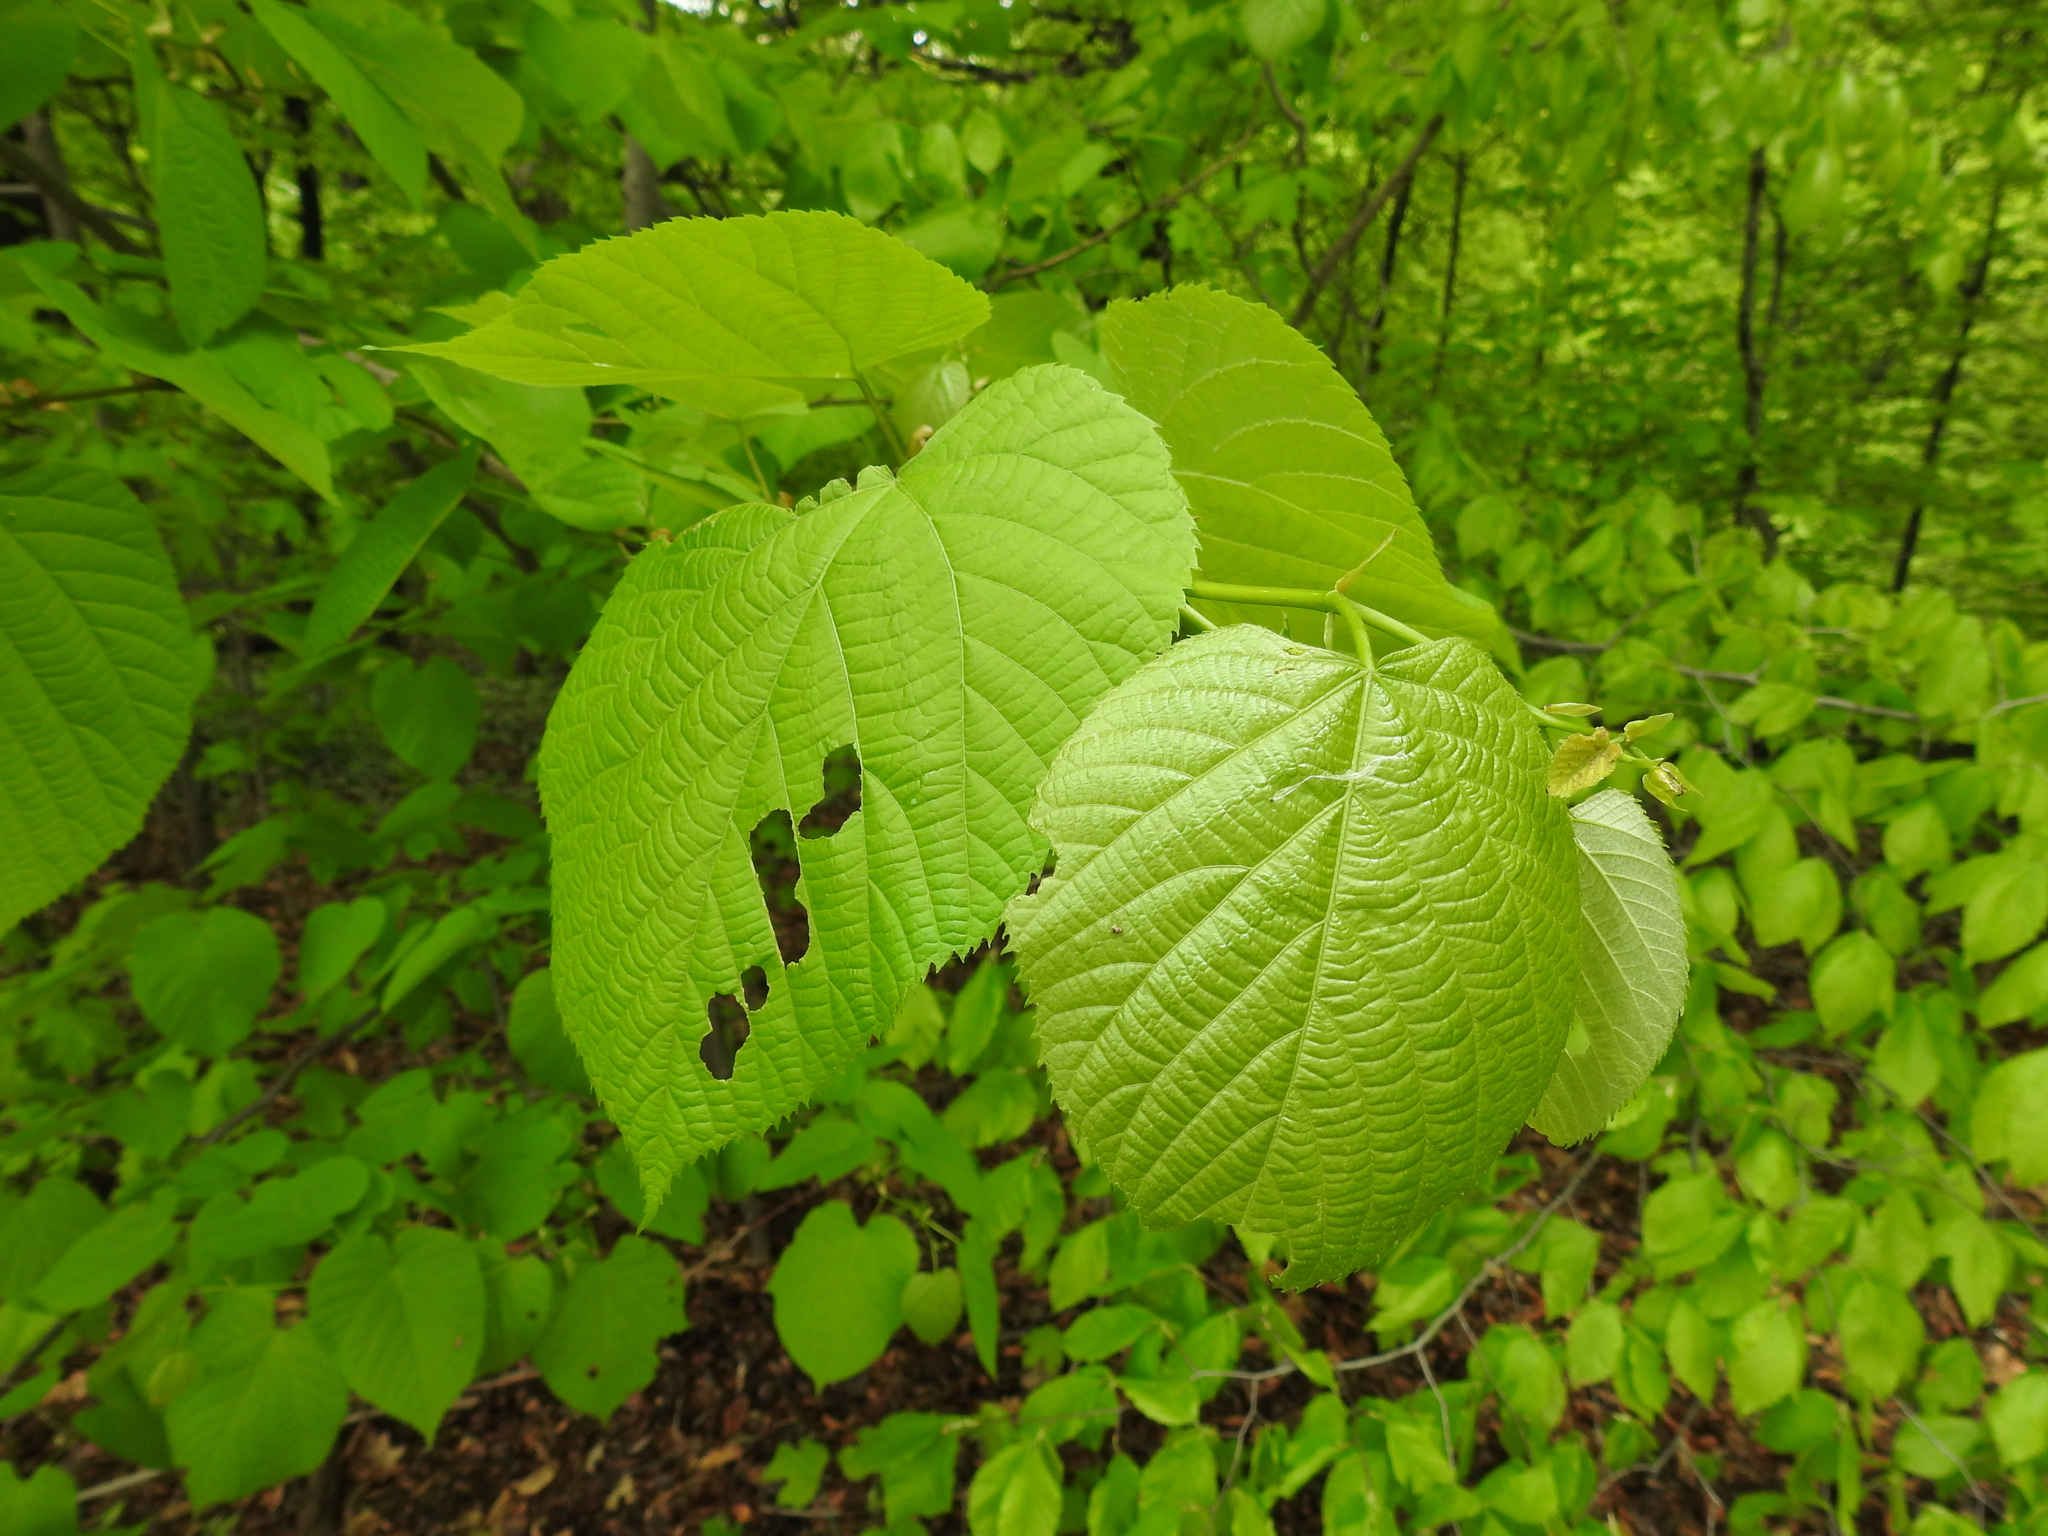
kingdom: Plantae
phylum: Tracheophyta
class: Magnoliopsida
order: Malvales
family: Malvaceae
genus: Tilia
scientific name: Tilia americana
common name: Basswood
